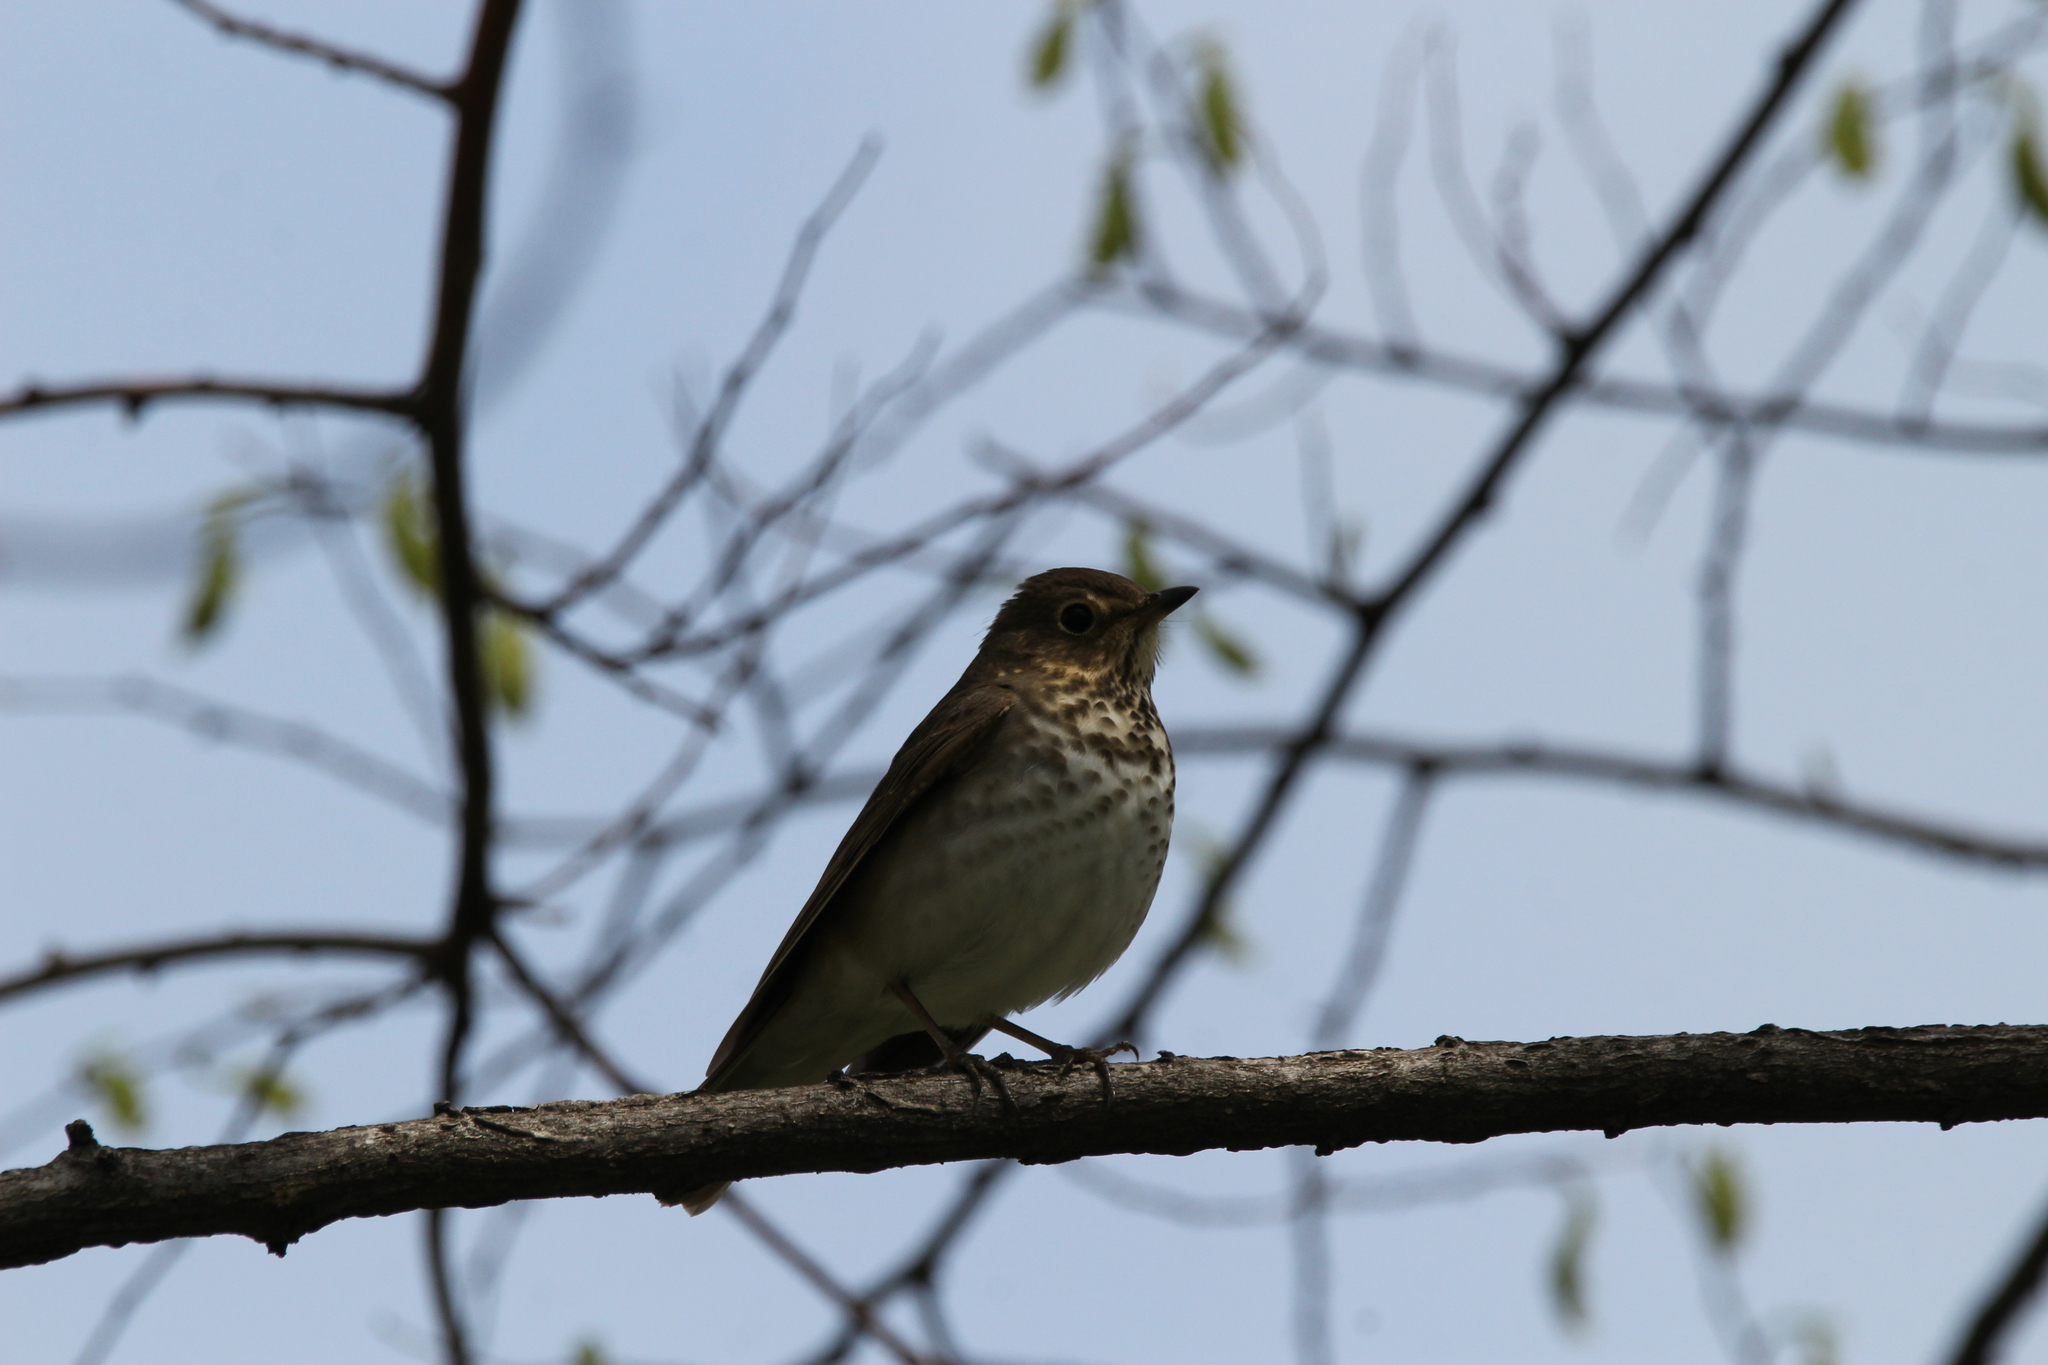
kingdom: Animalia
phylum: Chordata
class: Aves
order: Passeriformes
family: Turdidae
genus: Catharus
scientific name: Catharus ustulatus
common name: Swainson's thrush
